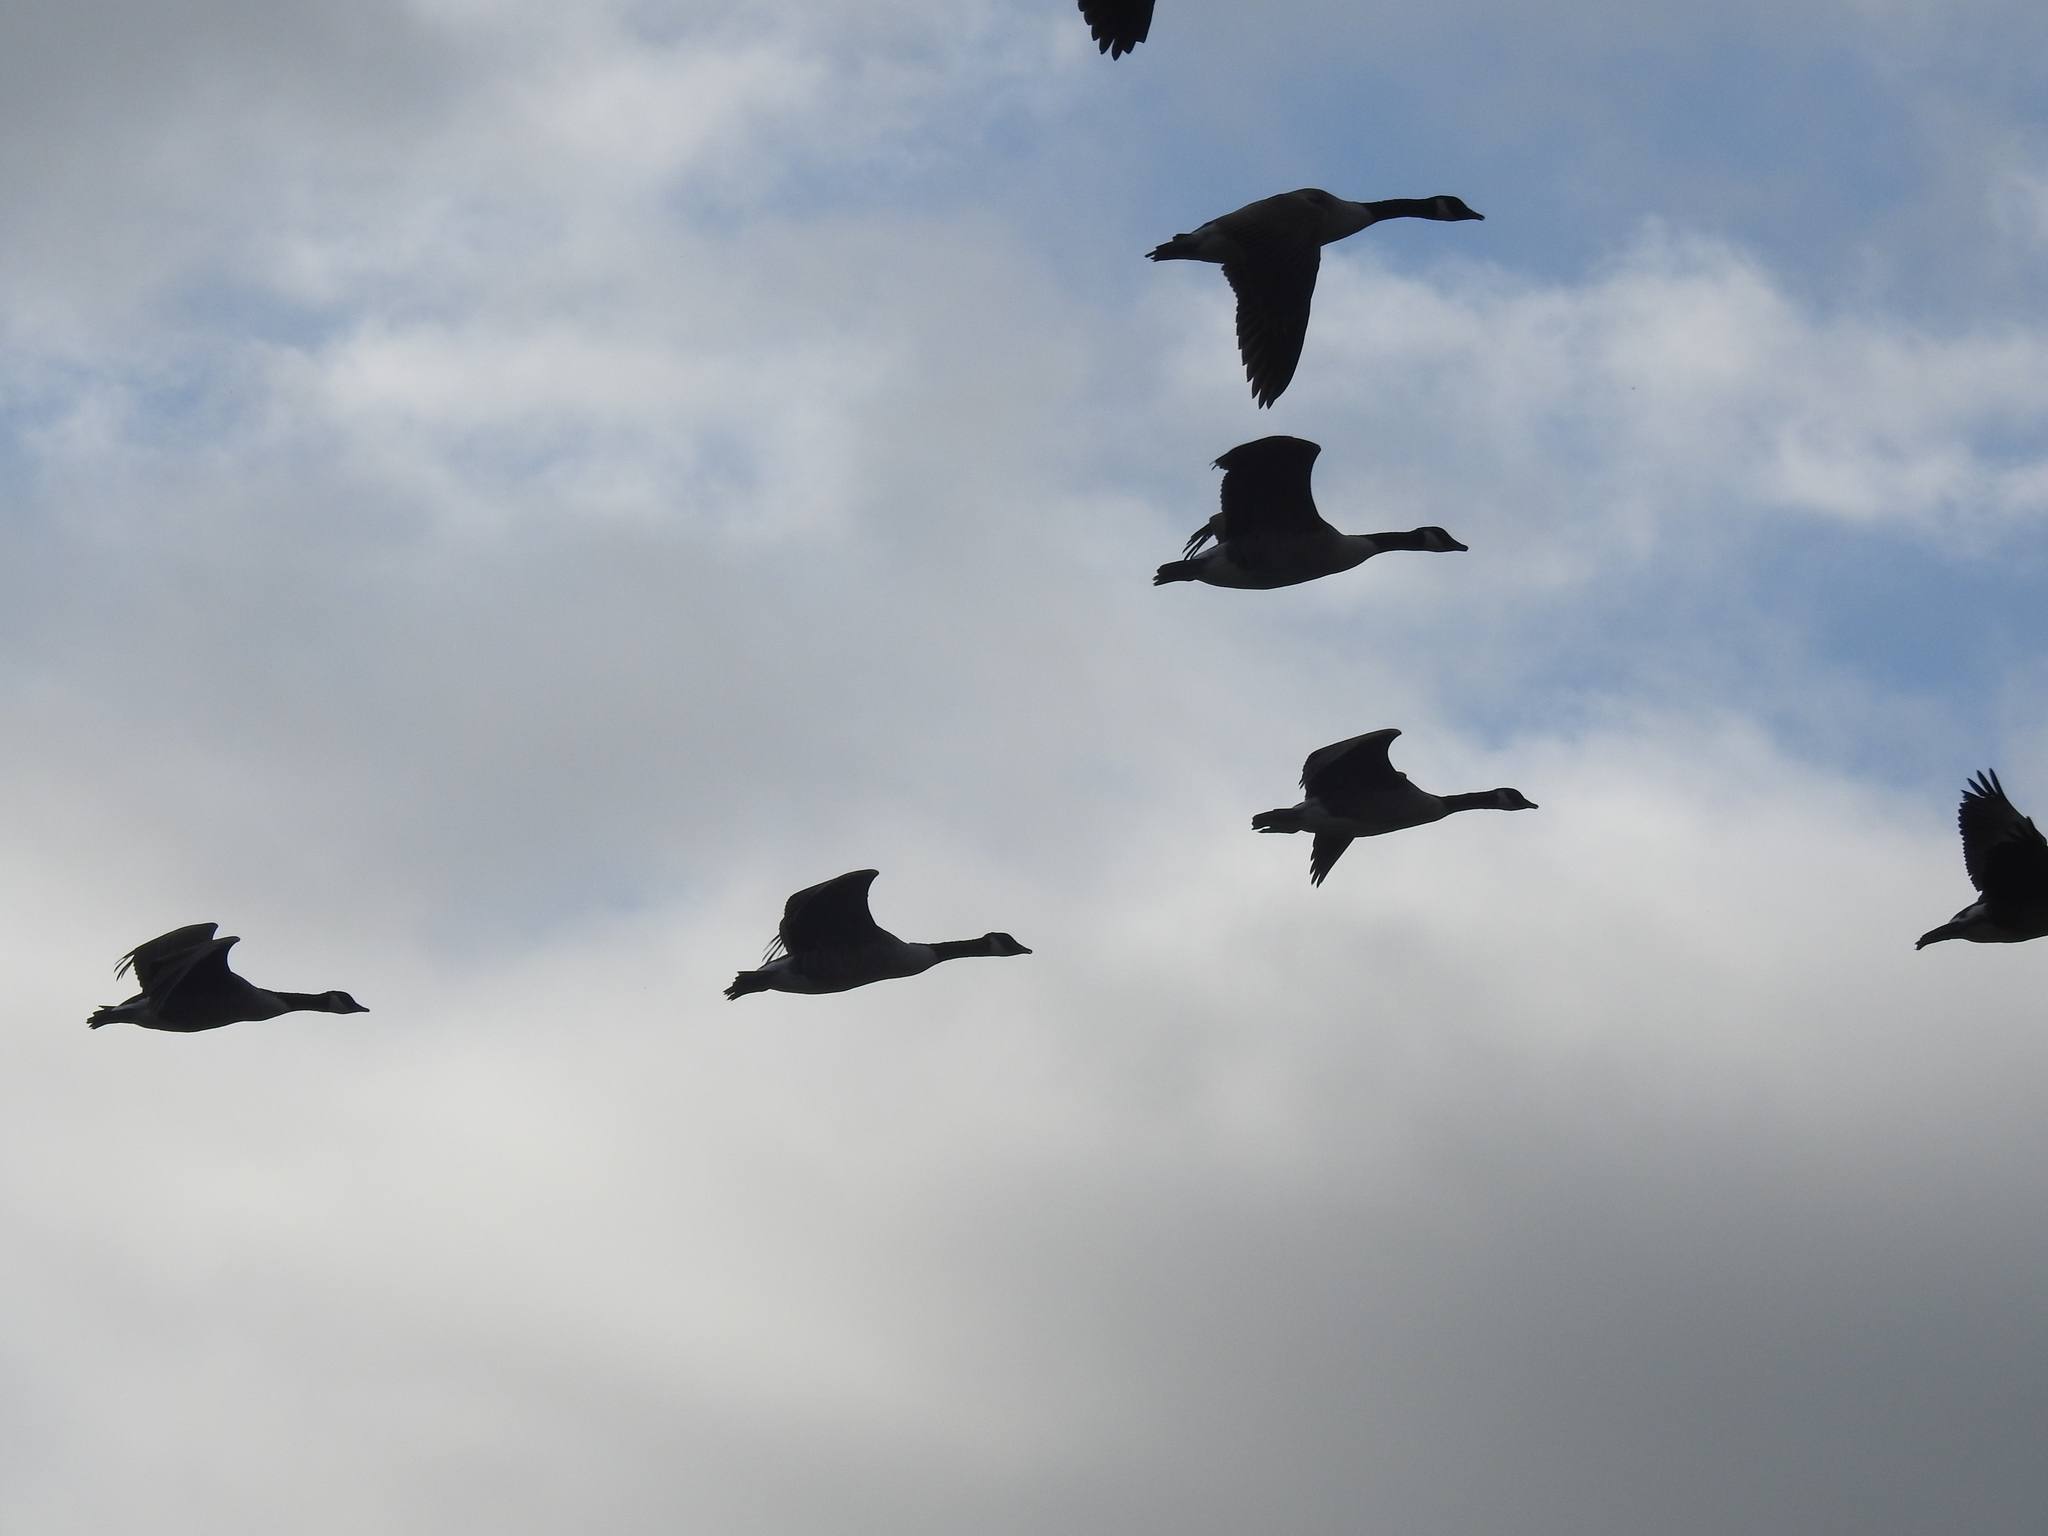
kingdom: Animalia
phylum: Chordata
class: Aves
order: Anseriformes
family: Anatidae
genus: Branta
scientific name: Branta canadensis
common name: Canada goose
